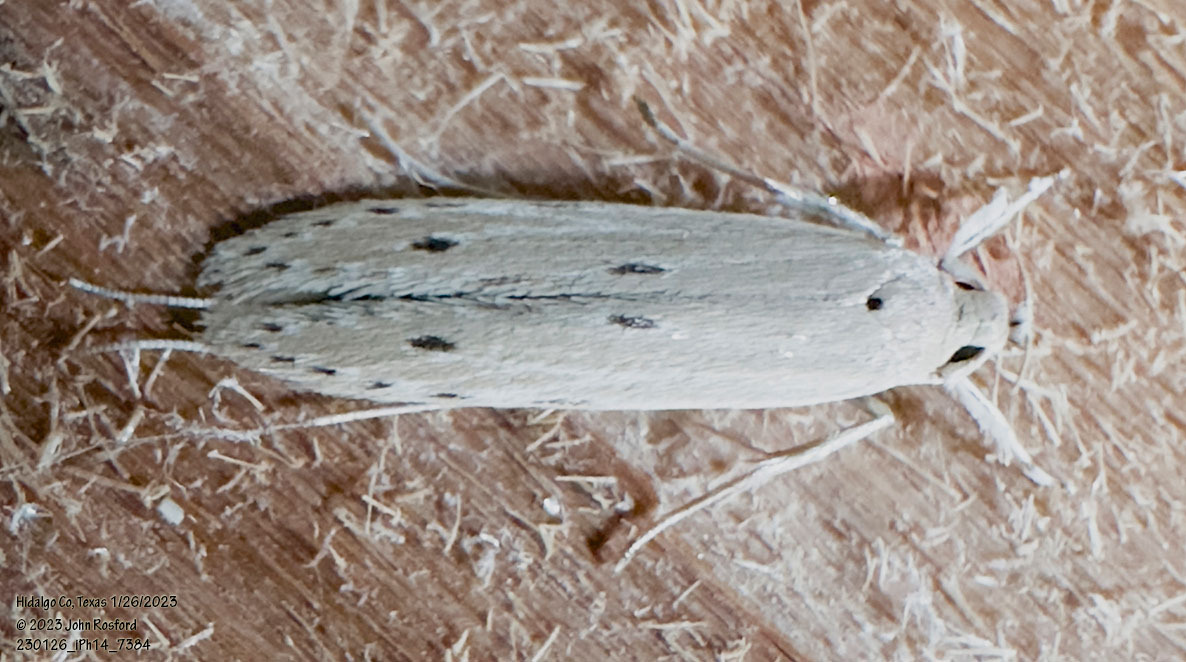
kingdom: Animalia
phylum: Arthropoda
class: Insecta
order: Lepidoptera
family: Coleophoridae
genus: Homaledra
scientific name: Homaledra sabalella
